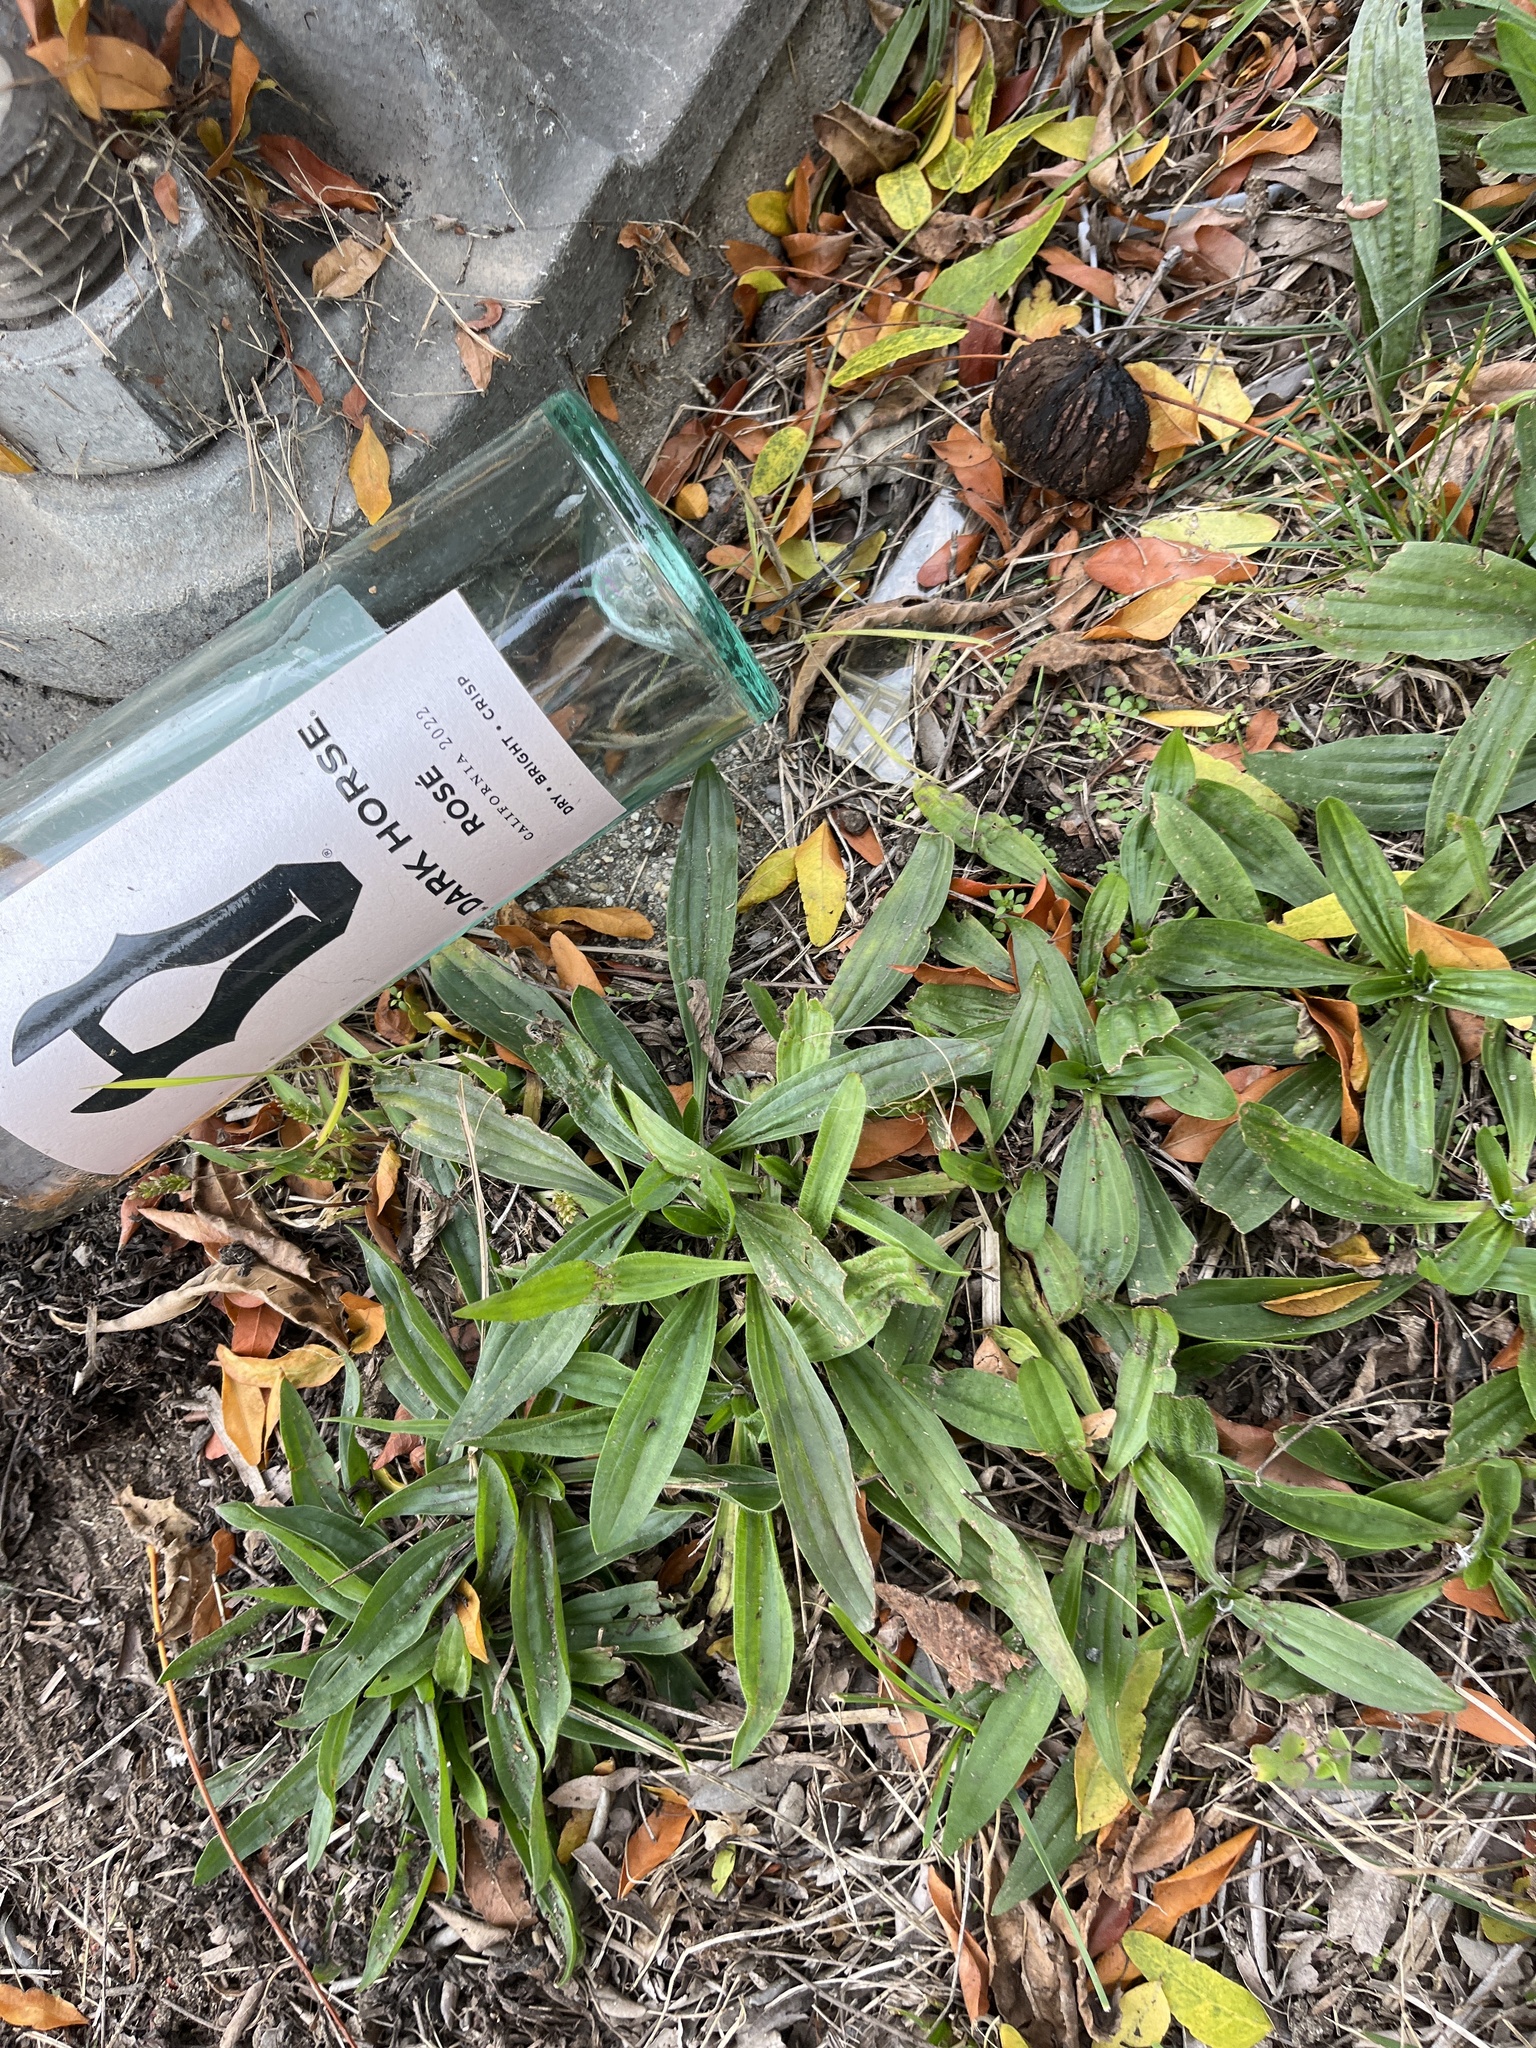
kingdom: Plantae
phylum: Tracheophyta
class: Magnoliopsida
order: Lamiales
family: Plantaginaceae
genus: Plantago
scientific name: Plantago lanceolata
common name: Ribwort plantain
